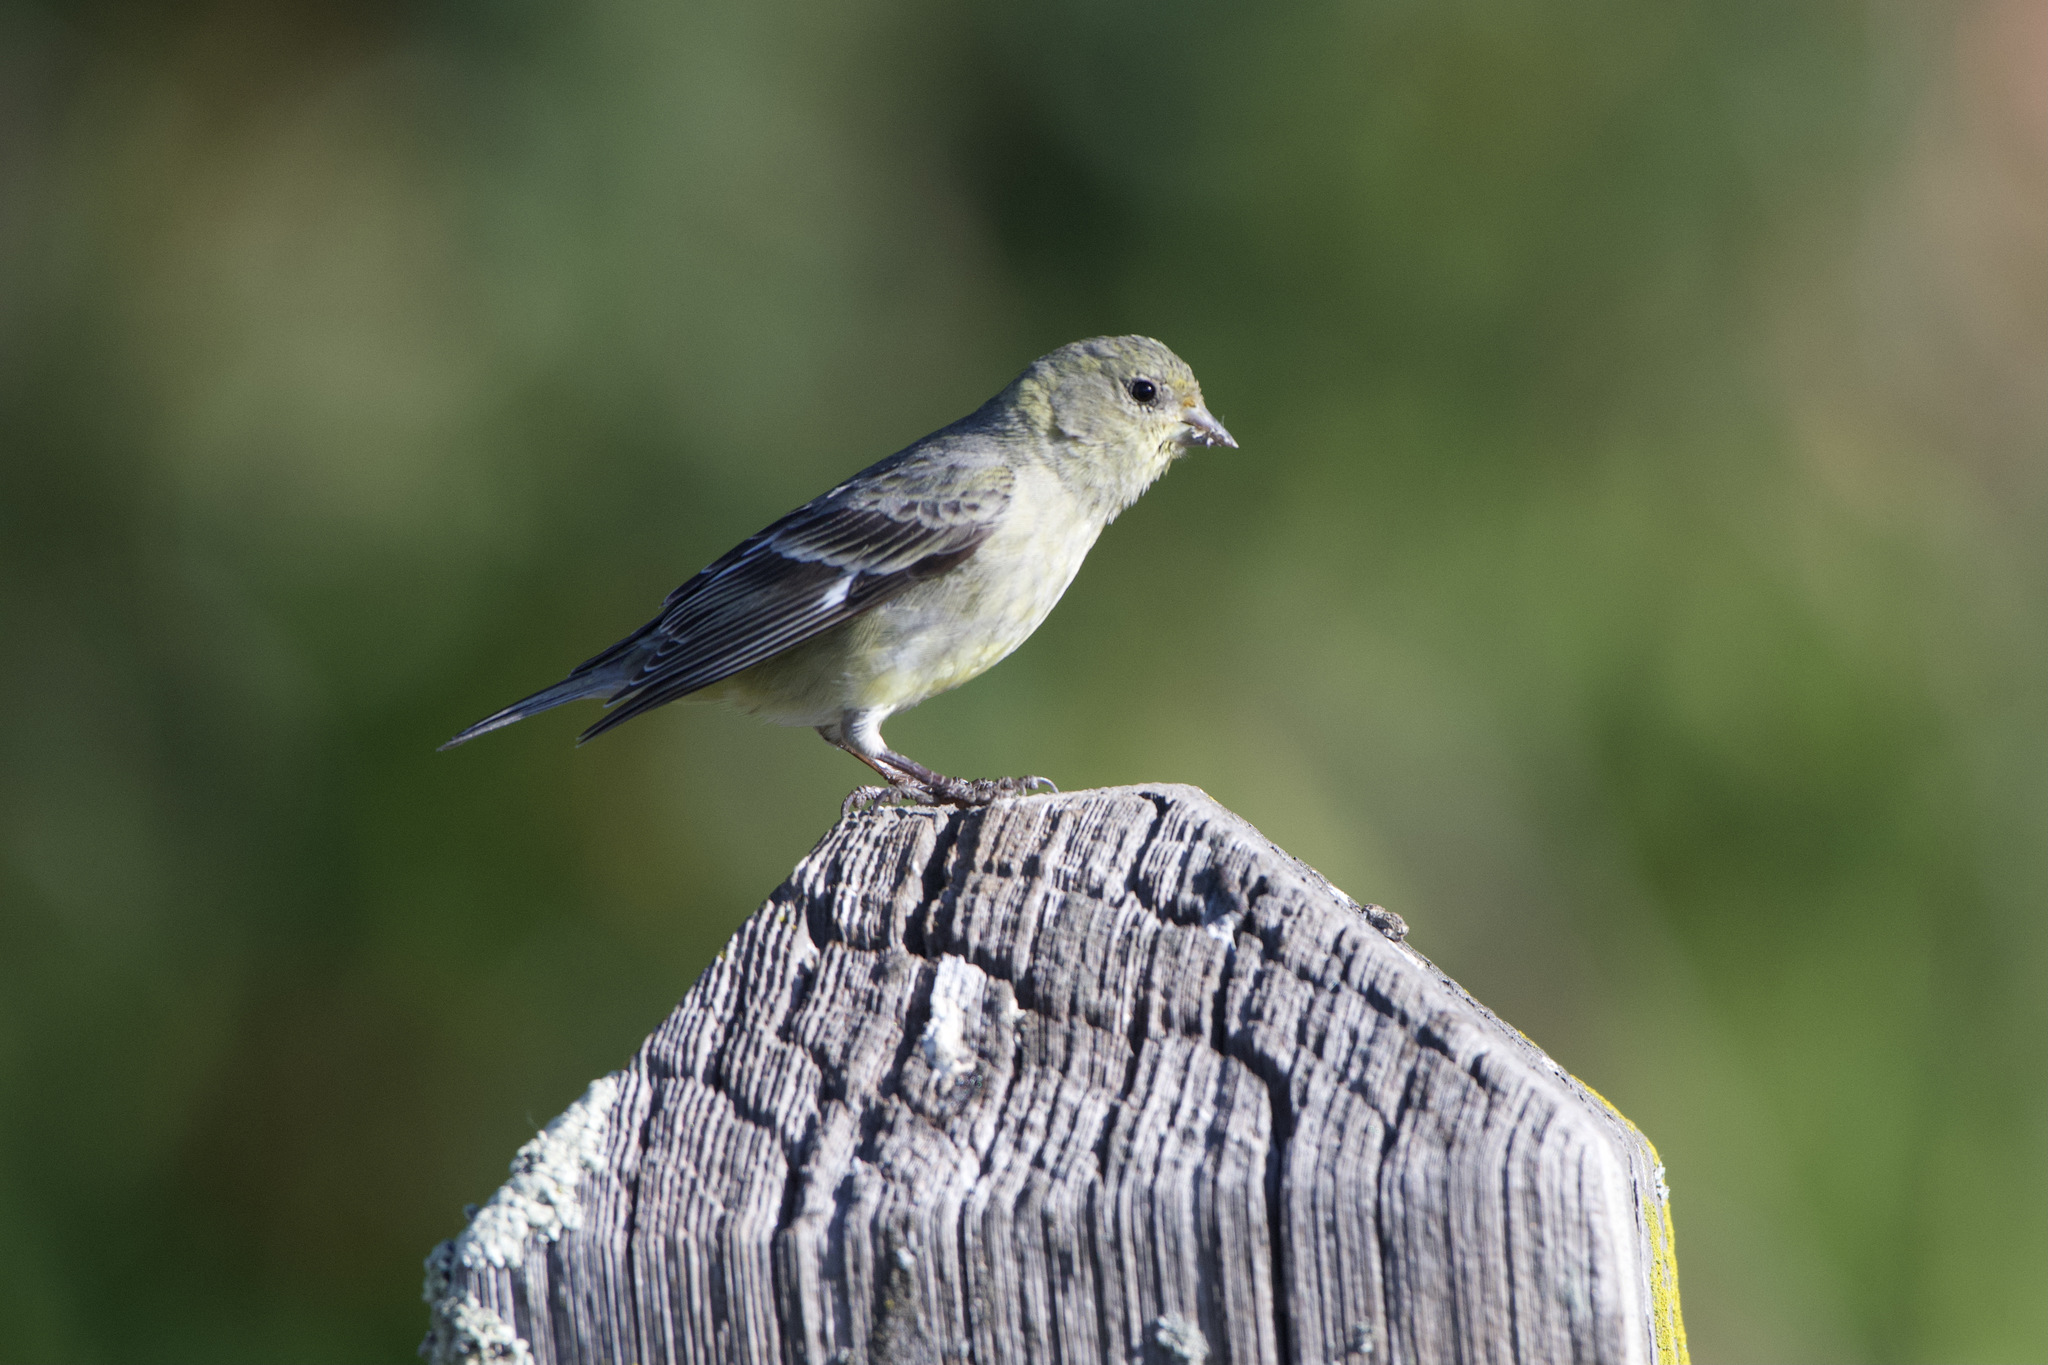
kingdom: Animalia
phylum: Chordata
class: Aves
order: Passeriformes
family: Fringillidae
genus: Spinus
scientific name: Spinus psaltria
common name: Lesser goldfinch
